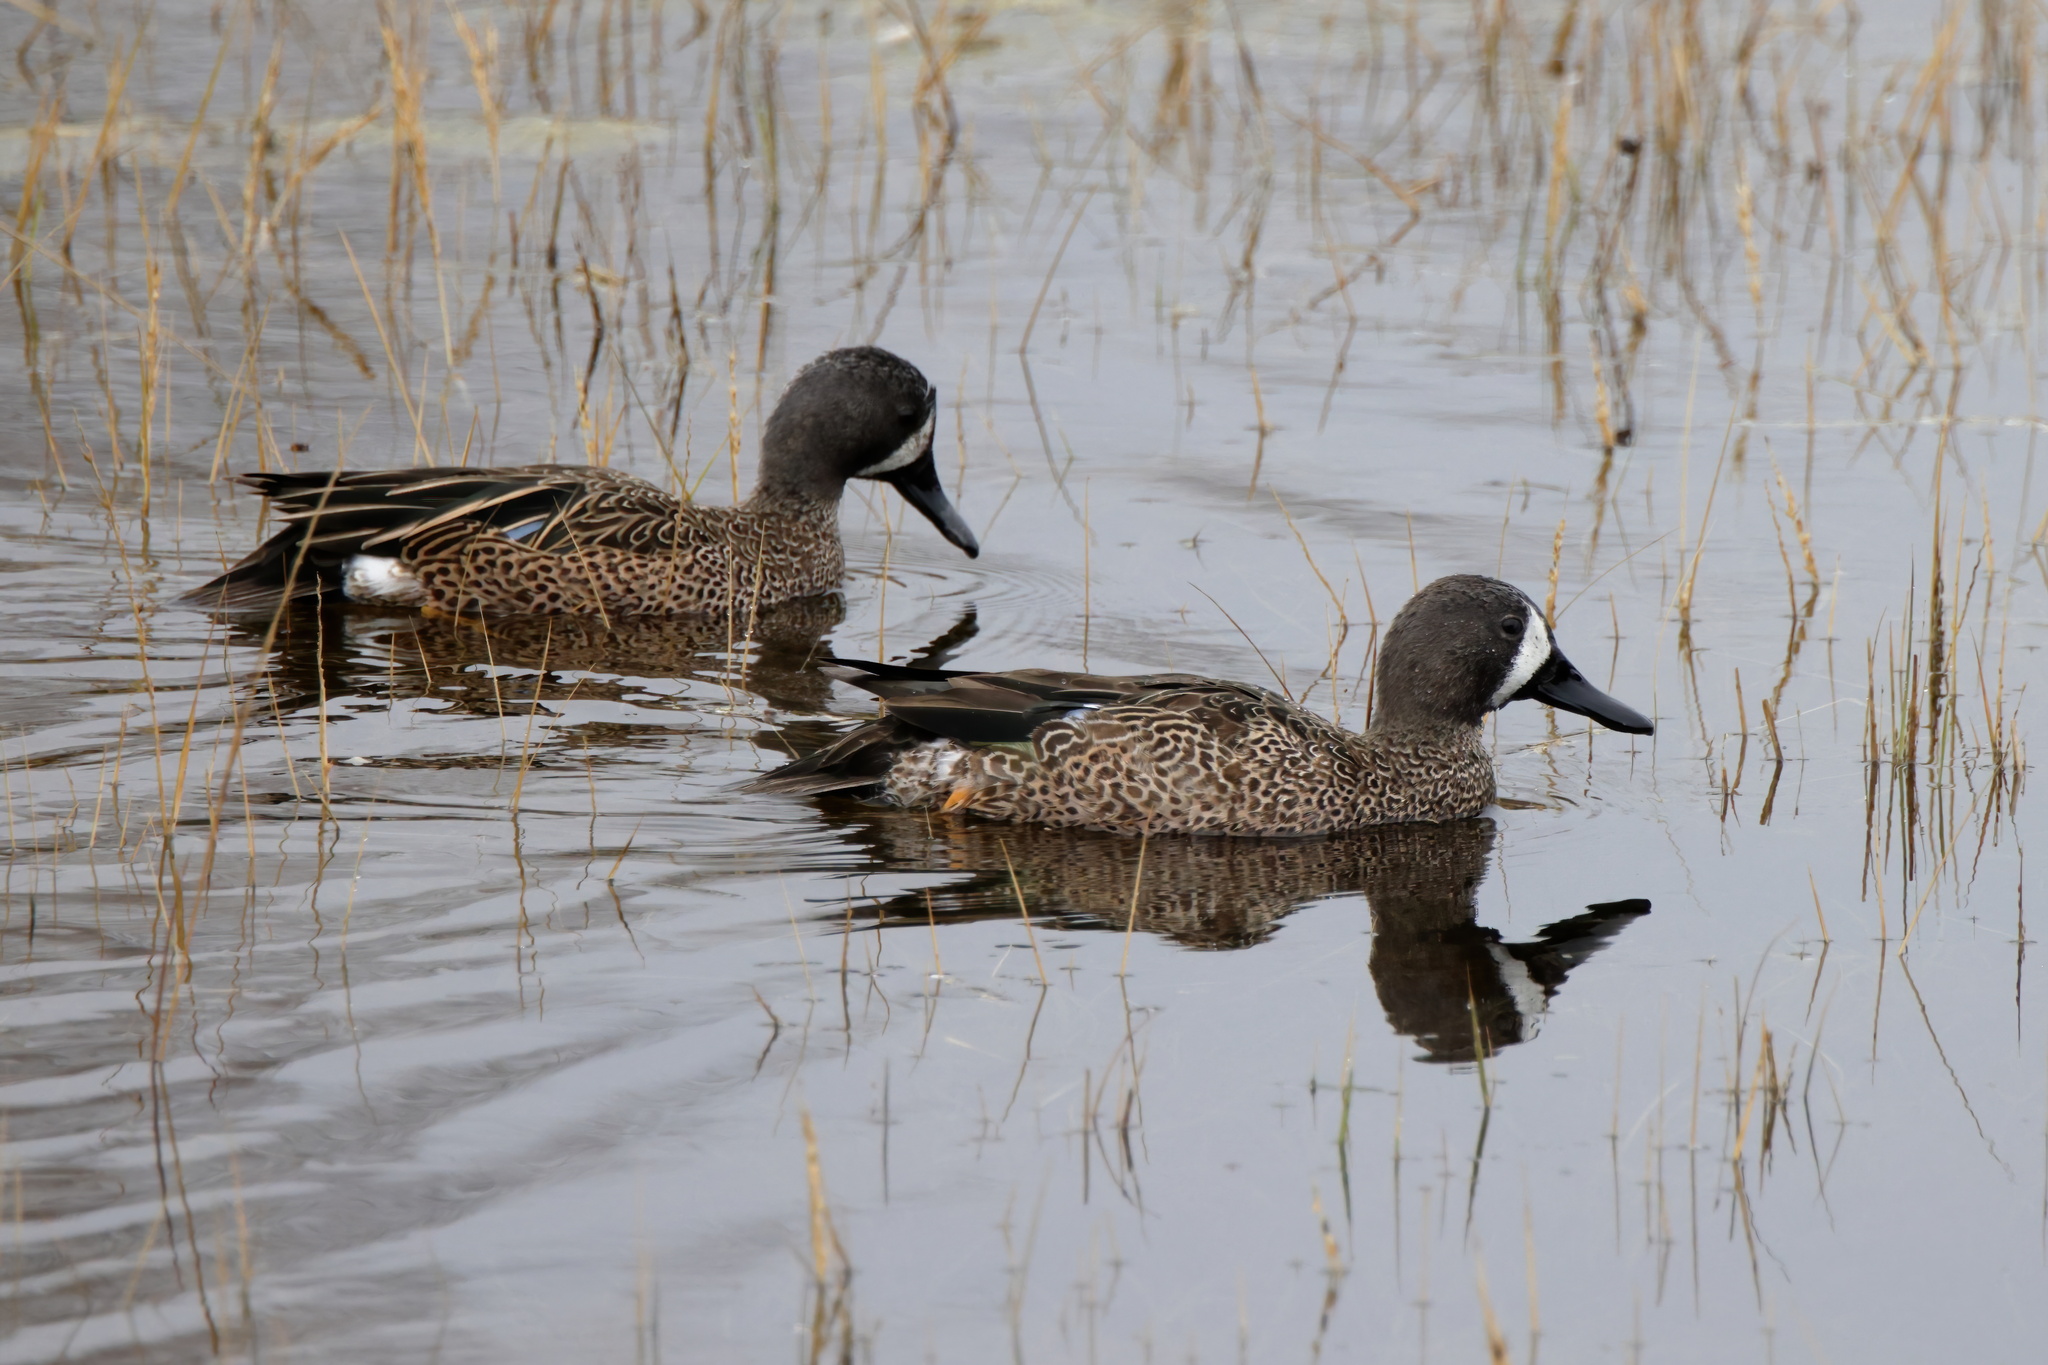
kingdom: Animalia
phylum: Chordata
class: Aves
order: Anseriformes
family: Anatidae
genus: Spatula
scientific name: Spatula discors
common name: Blue-winged teal
